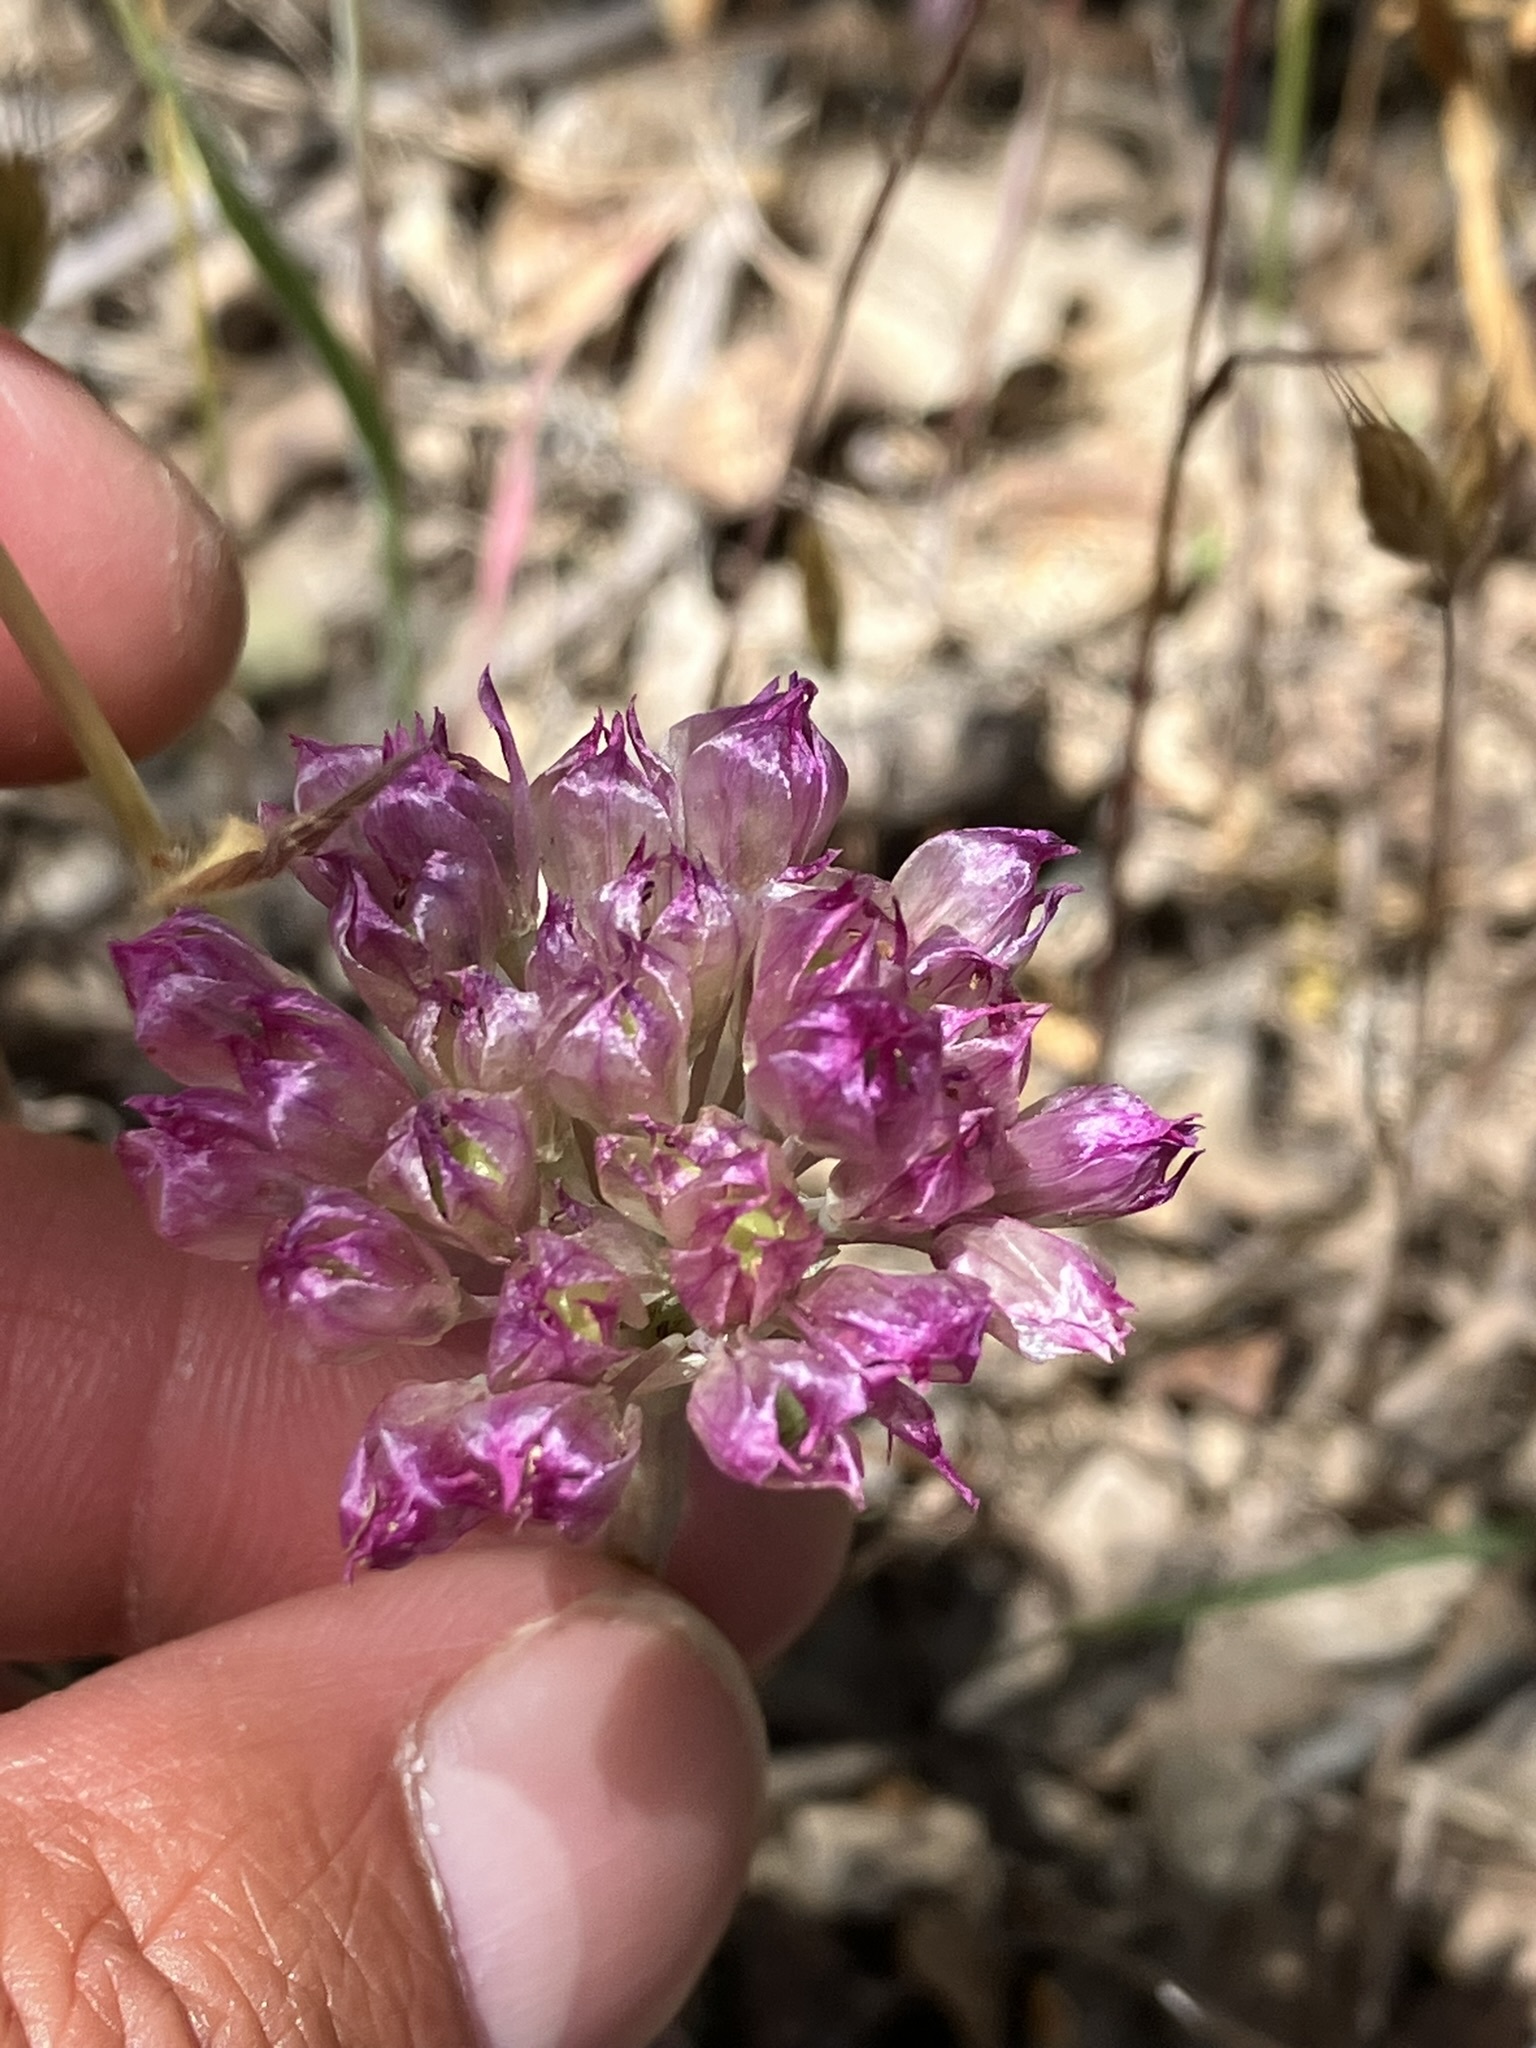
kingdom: Plantae
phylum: Tracheophyta
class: Liliopsida
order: Asparagales
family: Amaryllidaceae
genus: Allium
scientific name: Allium serra
